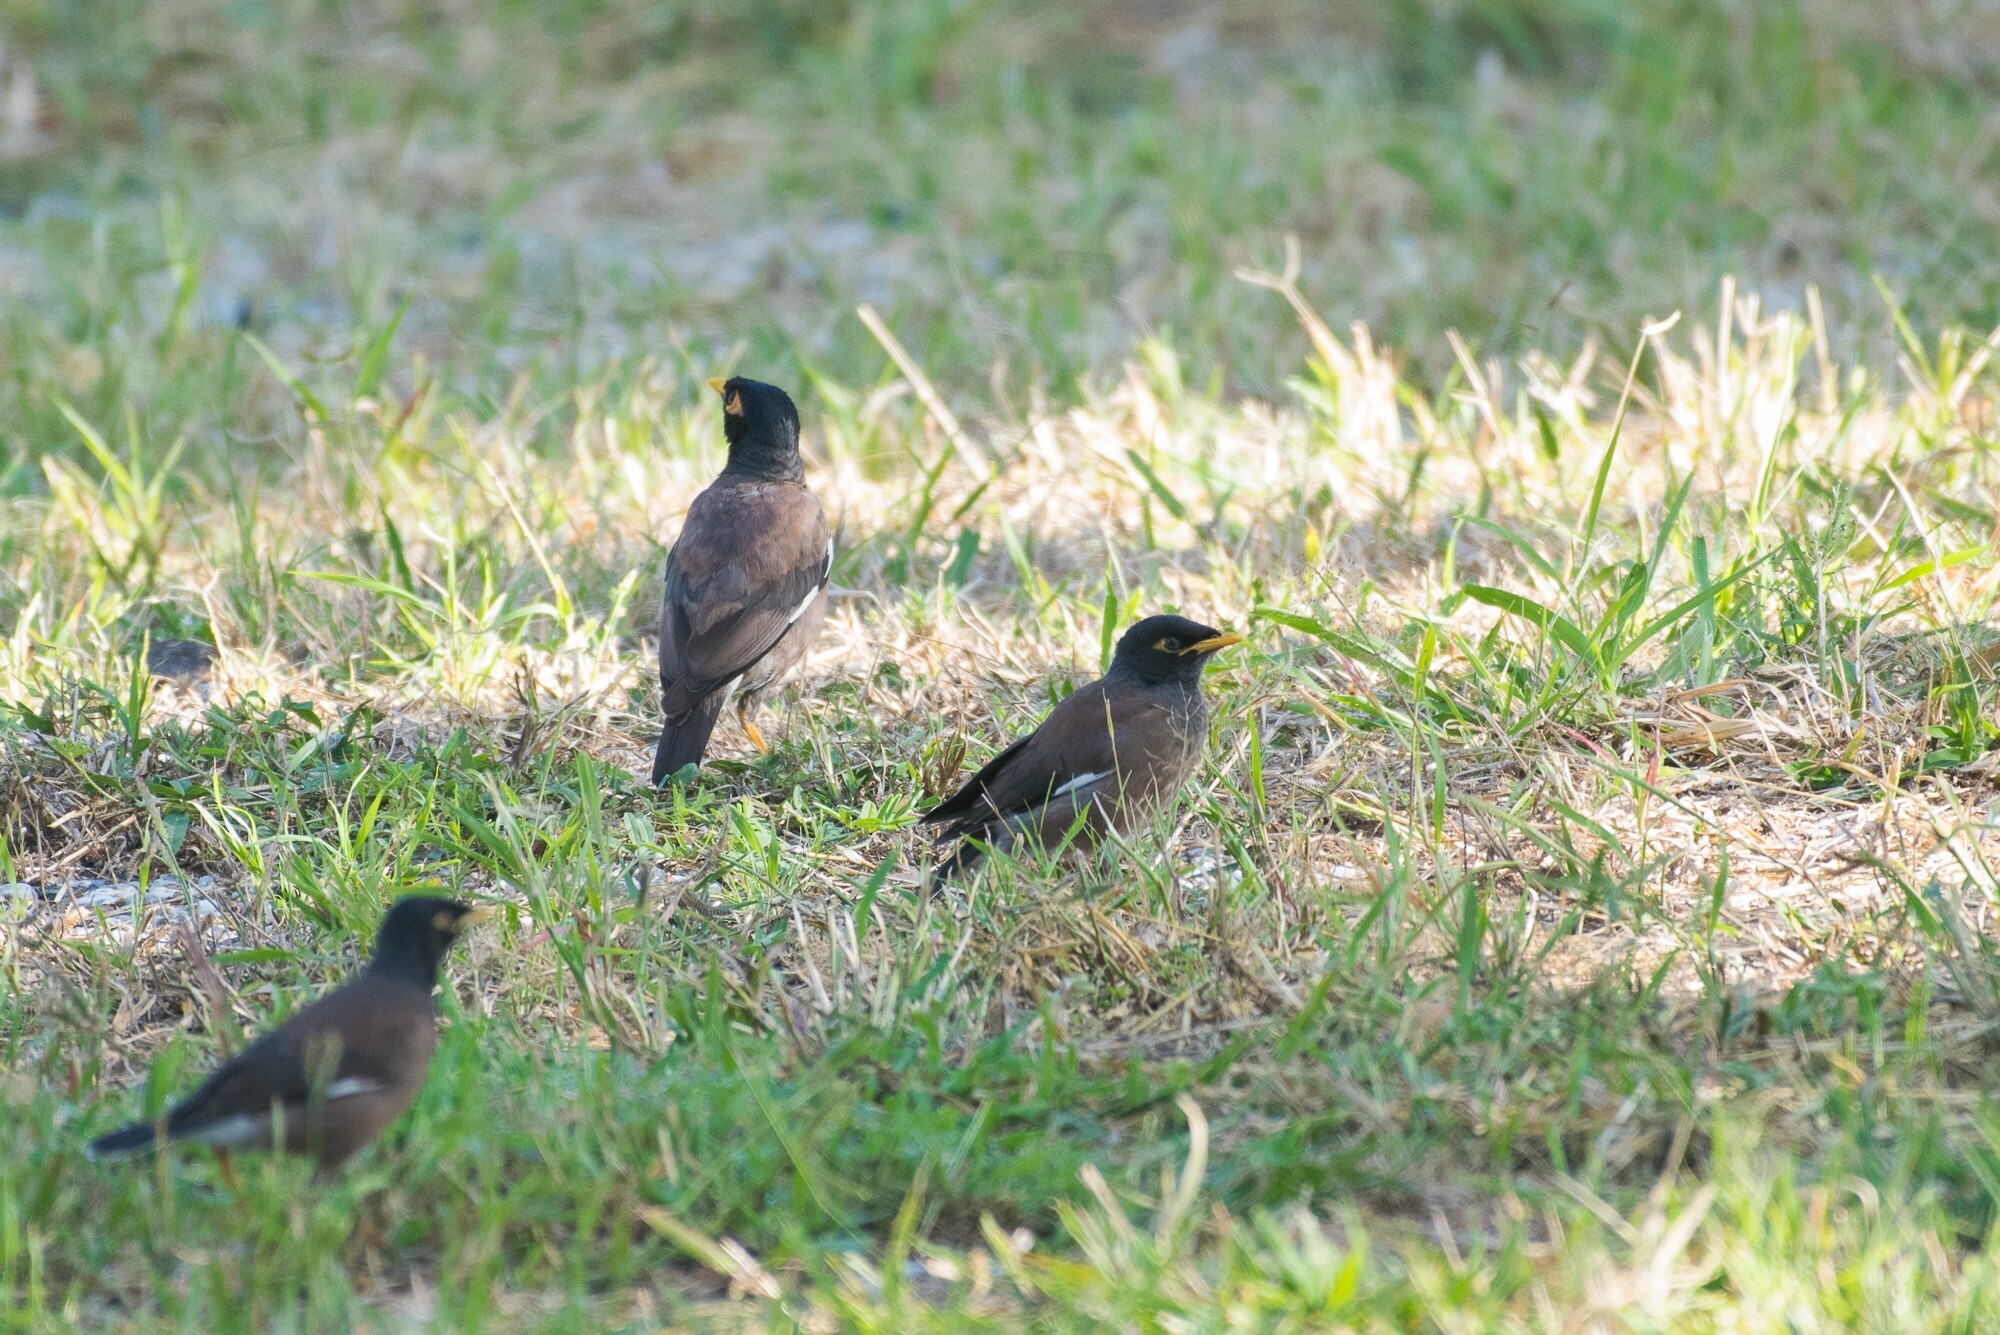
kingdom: Animalia
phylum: Chordata
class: Aves
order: Passeriformes
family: Sturnidae
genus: Acridotheres
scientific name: Acridotheres tristis
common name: Common myna
